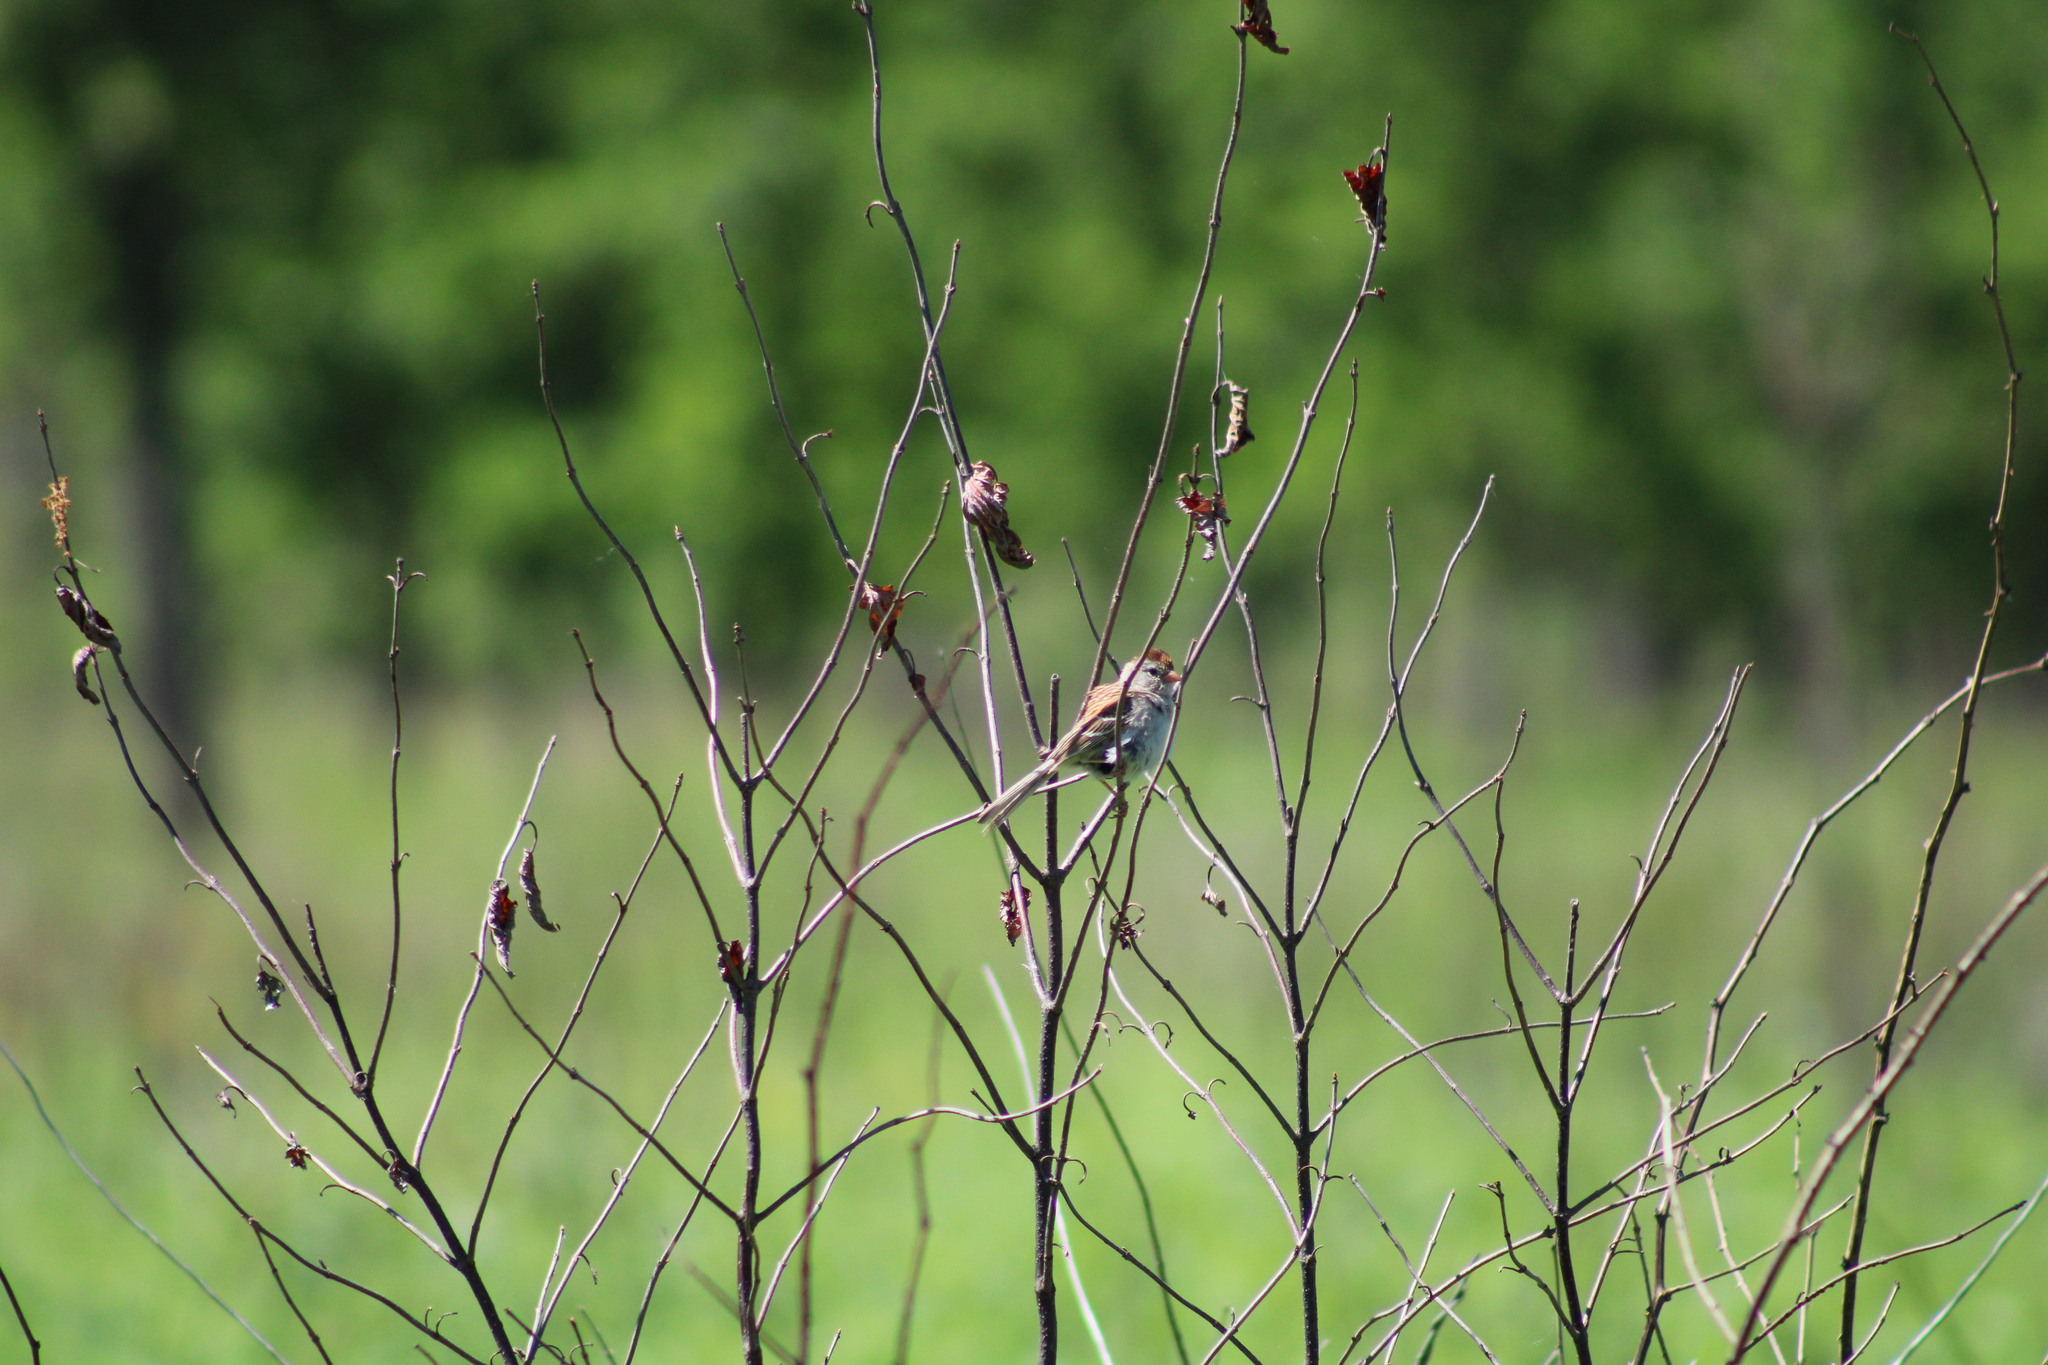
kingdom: Animalia
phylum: Chordata
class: Aves
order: Passeriformes
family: Passerellidae
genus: Spizella
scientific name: Spizella pusilla
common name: Field sparrow
